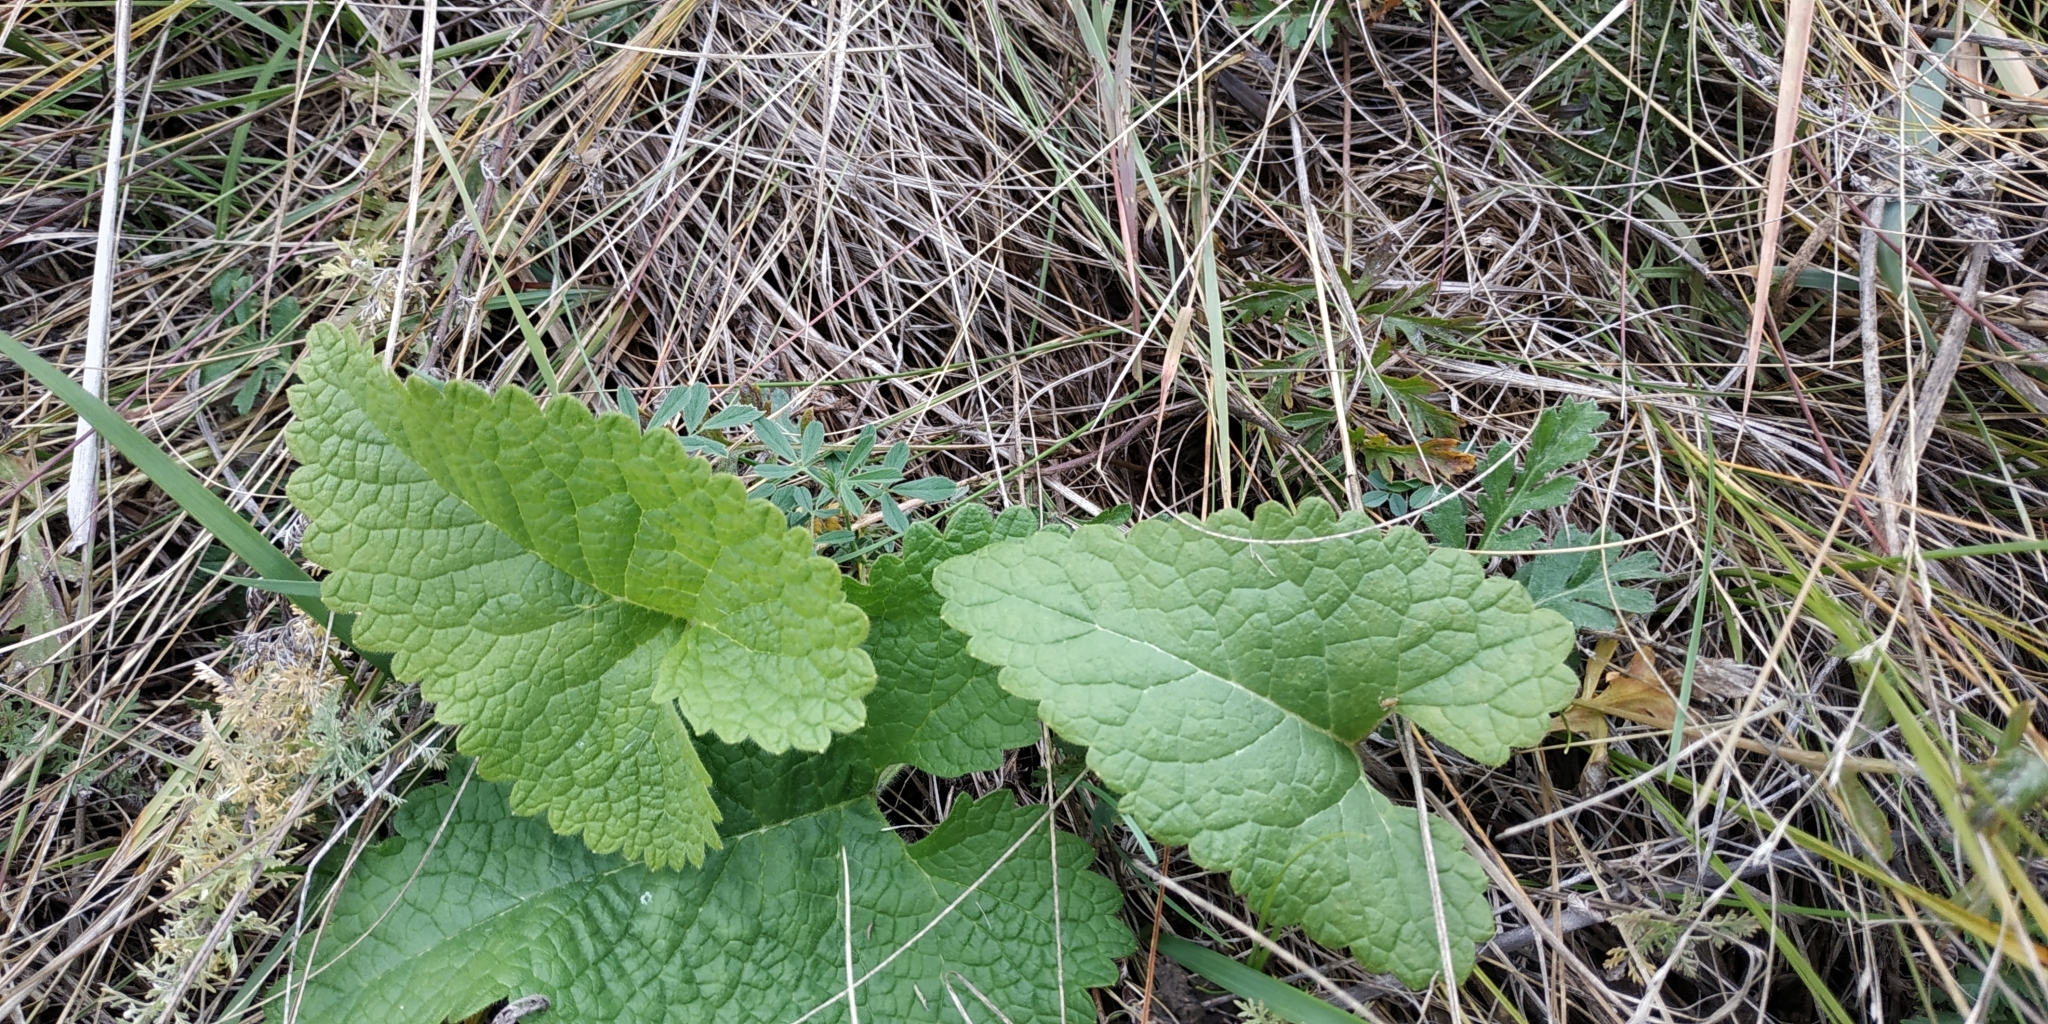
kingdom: Plantae
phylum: Tracheophyta
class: Magnoliopsida
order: Lamiales
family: Lamiaceae
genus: Phlomoides
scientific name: Phlomoides tuberosa
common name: Tuberous jerusalem sage
